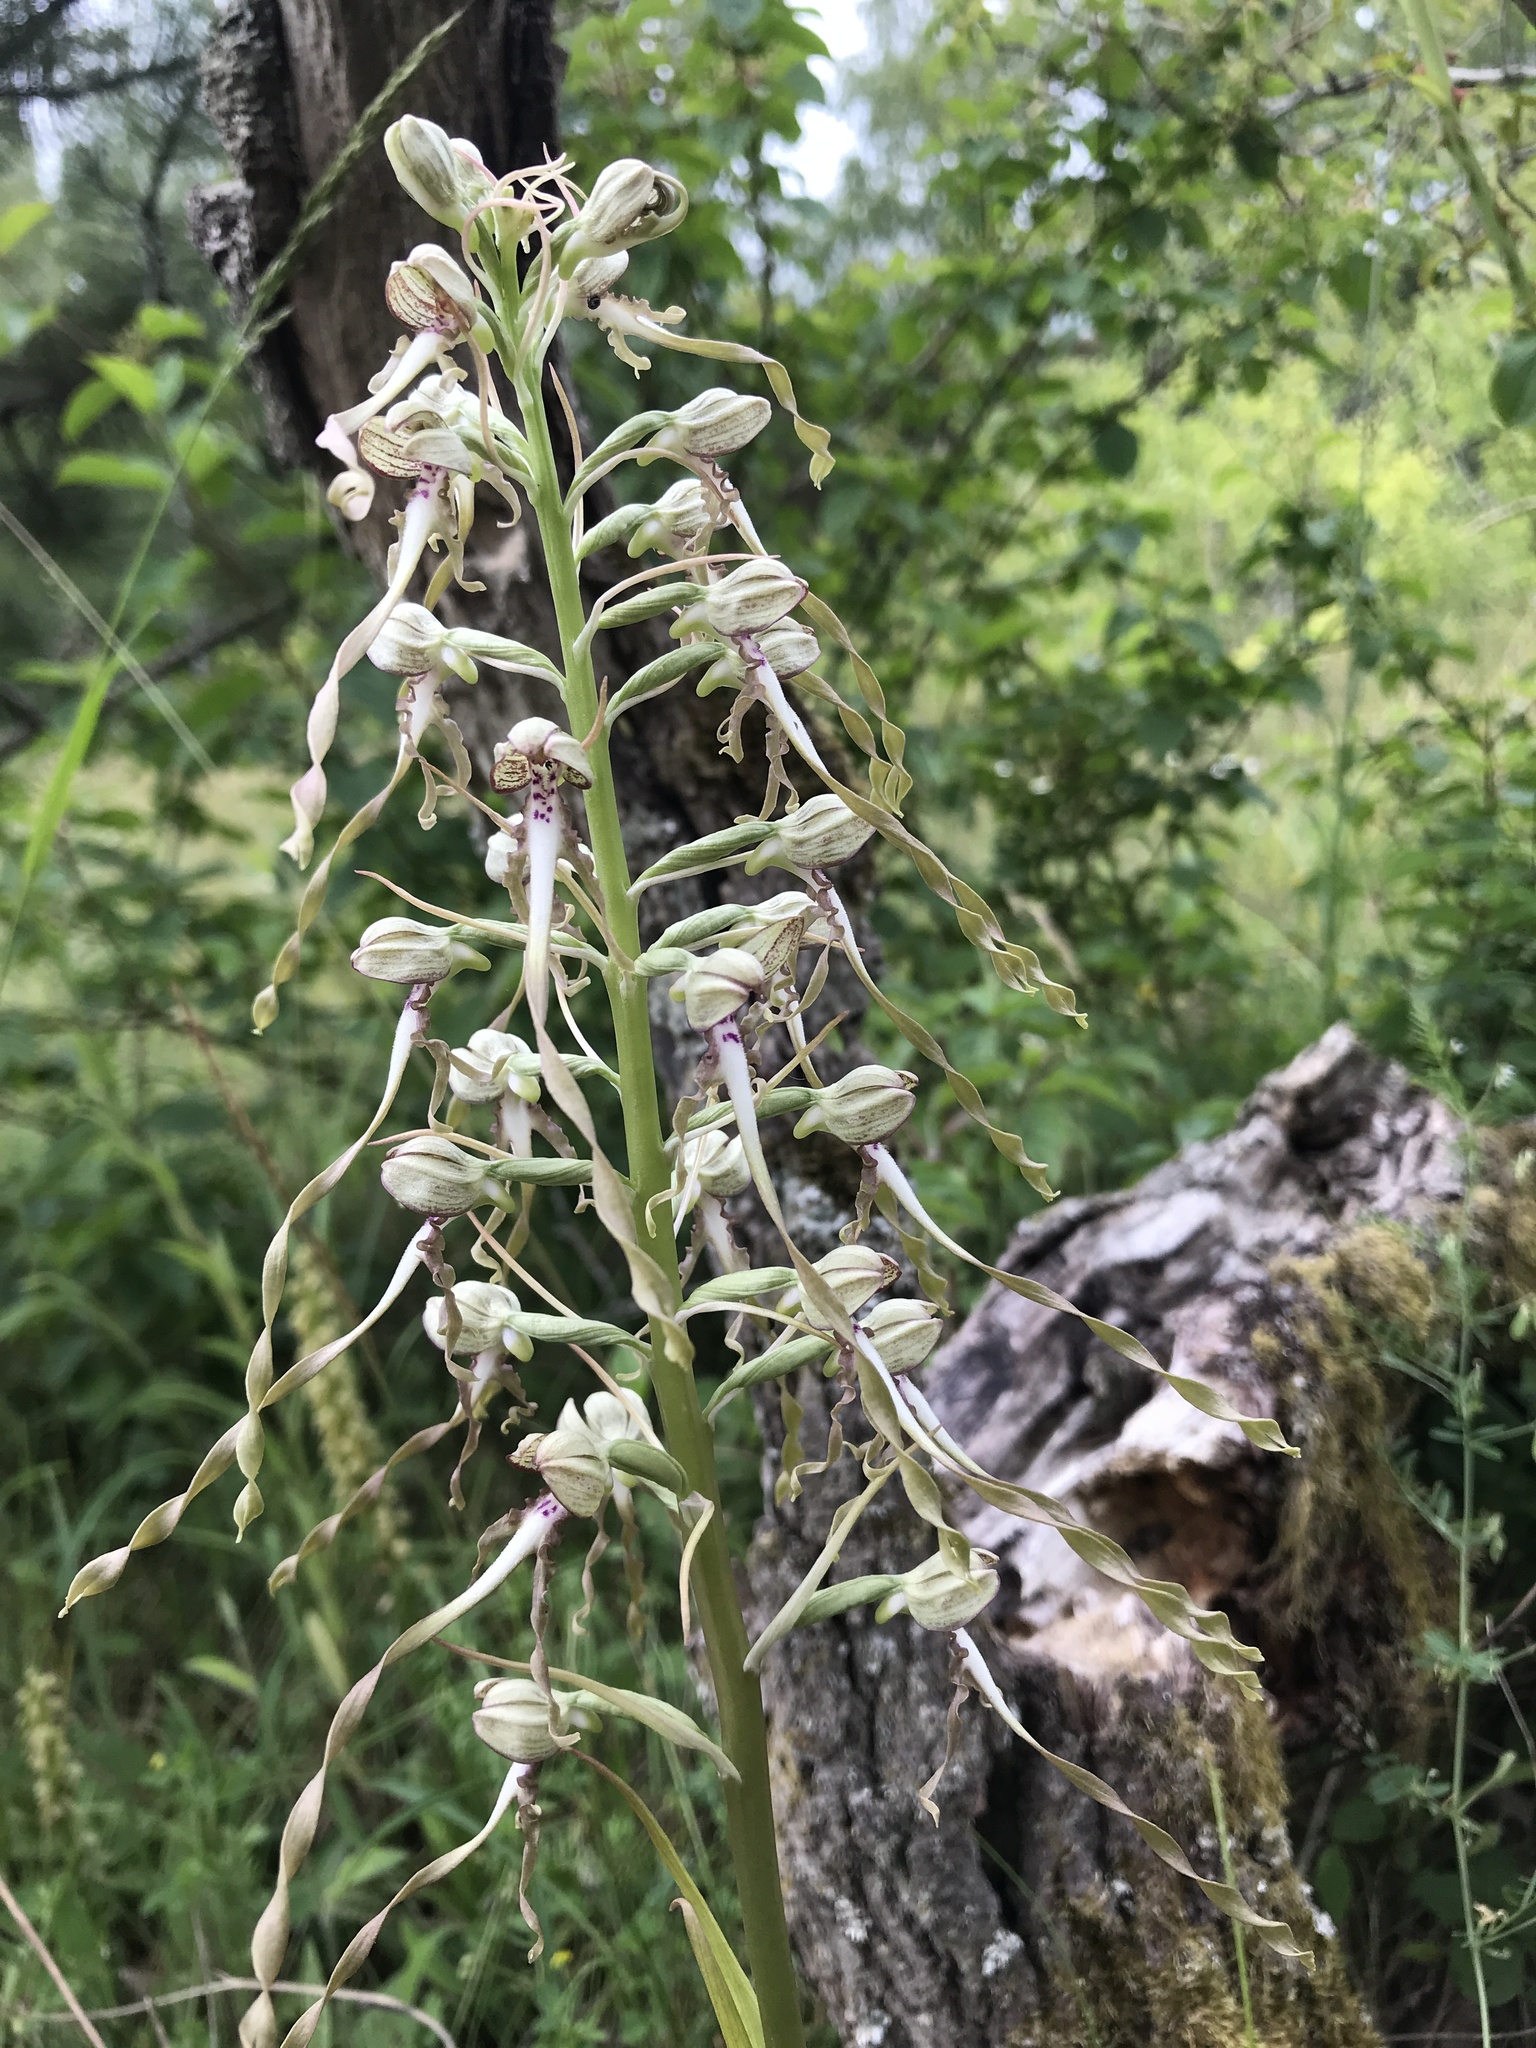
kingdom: Plantae
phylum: Tracheophyta
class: Liliopsida
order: Asparagales
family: Orchidaceae
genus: Himantoglossum
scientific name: Himantoglossum hircinum
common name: Lizard orchid
